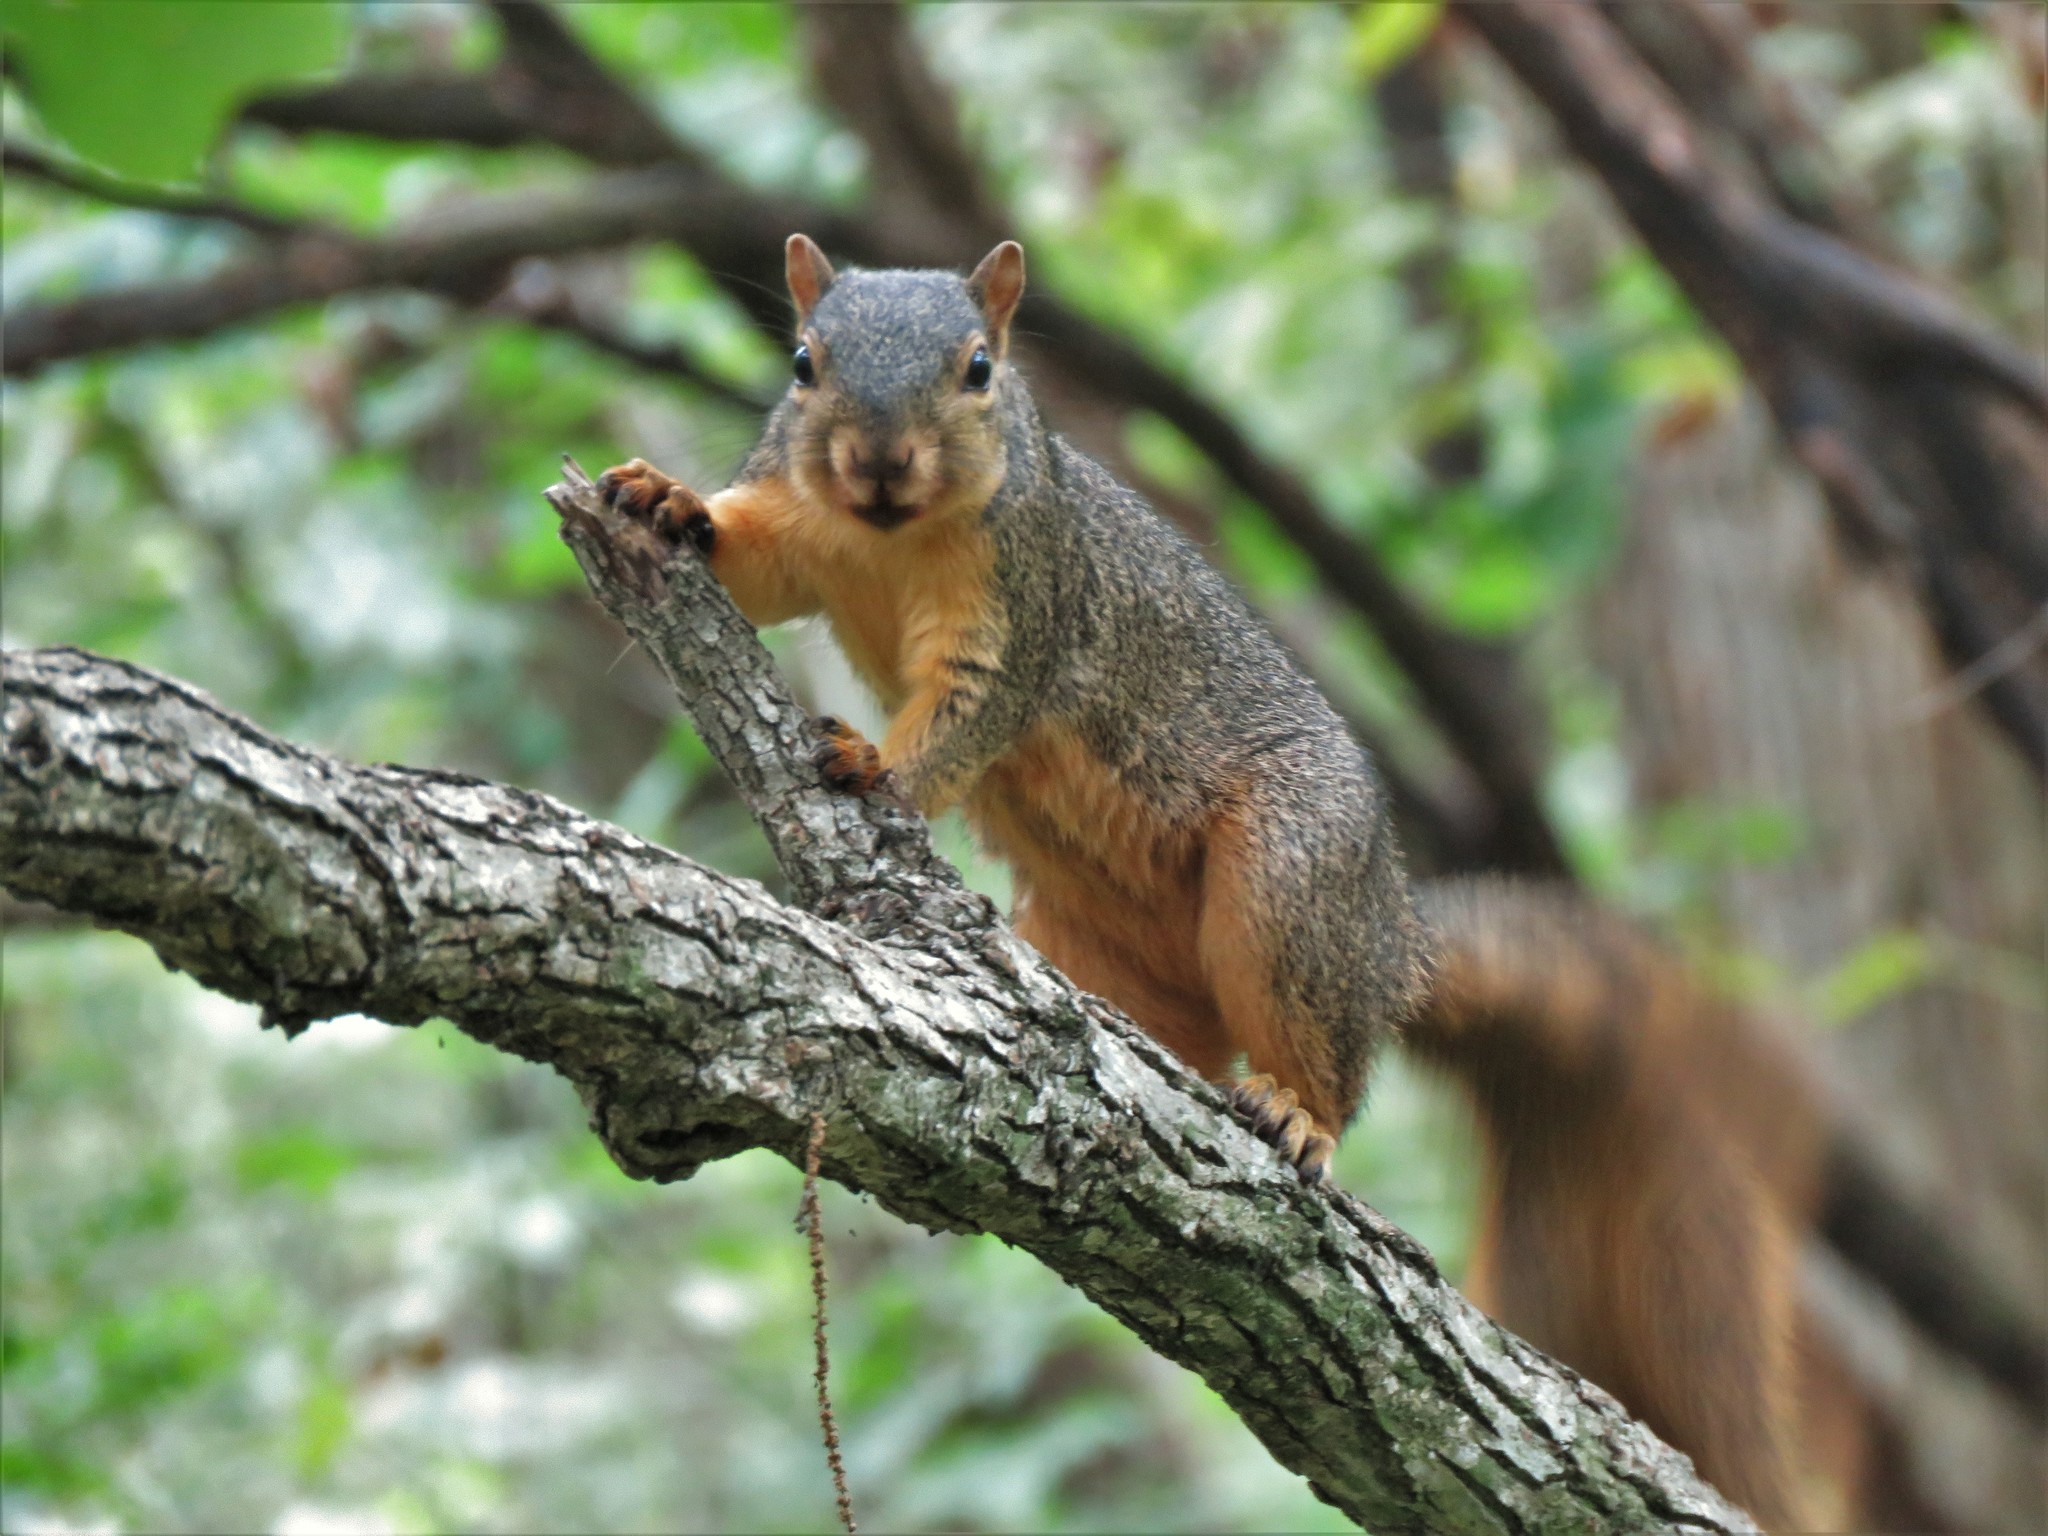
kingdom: Animalia
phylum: Chordata
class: Mammalia
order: Rodentia
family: Sciuridae
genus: Sciurus
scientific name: Sciurus niger
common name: Fox squirrel
